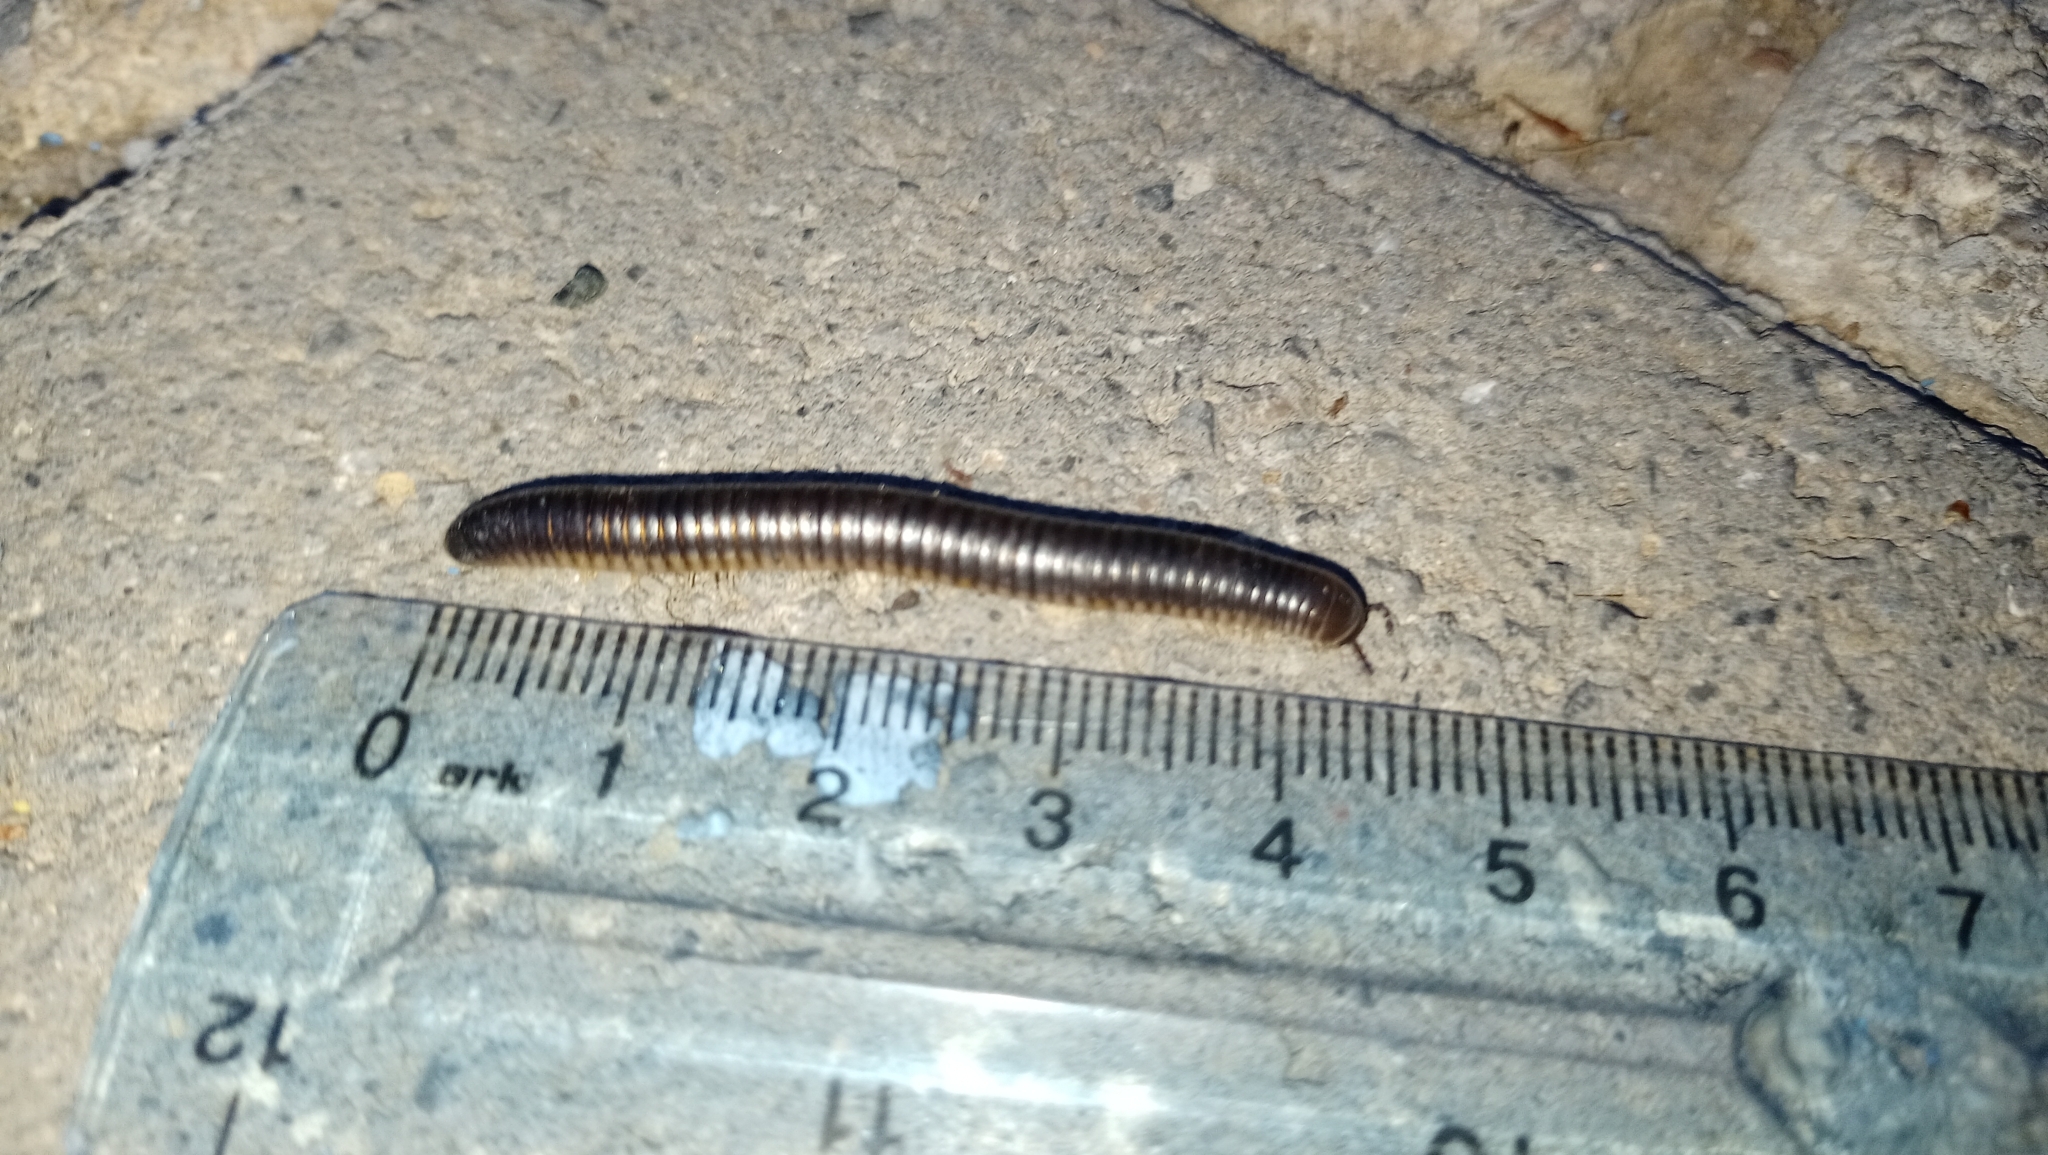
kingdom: Animalia
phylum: Arthropoda
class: Diplopoda
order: Julida
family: Julidae
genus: Pachyiulus
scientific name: Pachyiulus flavipes
